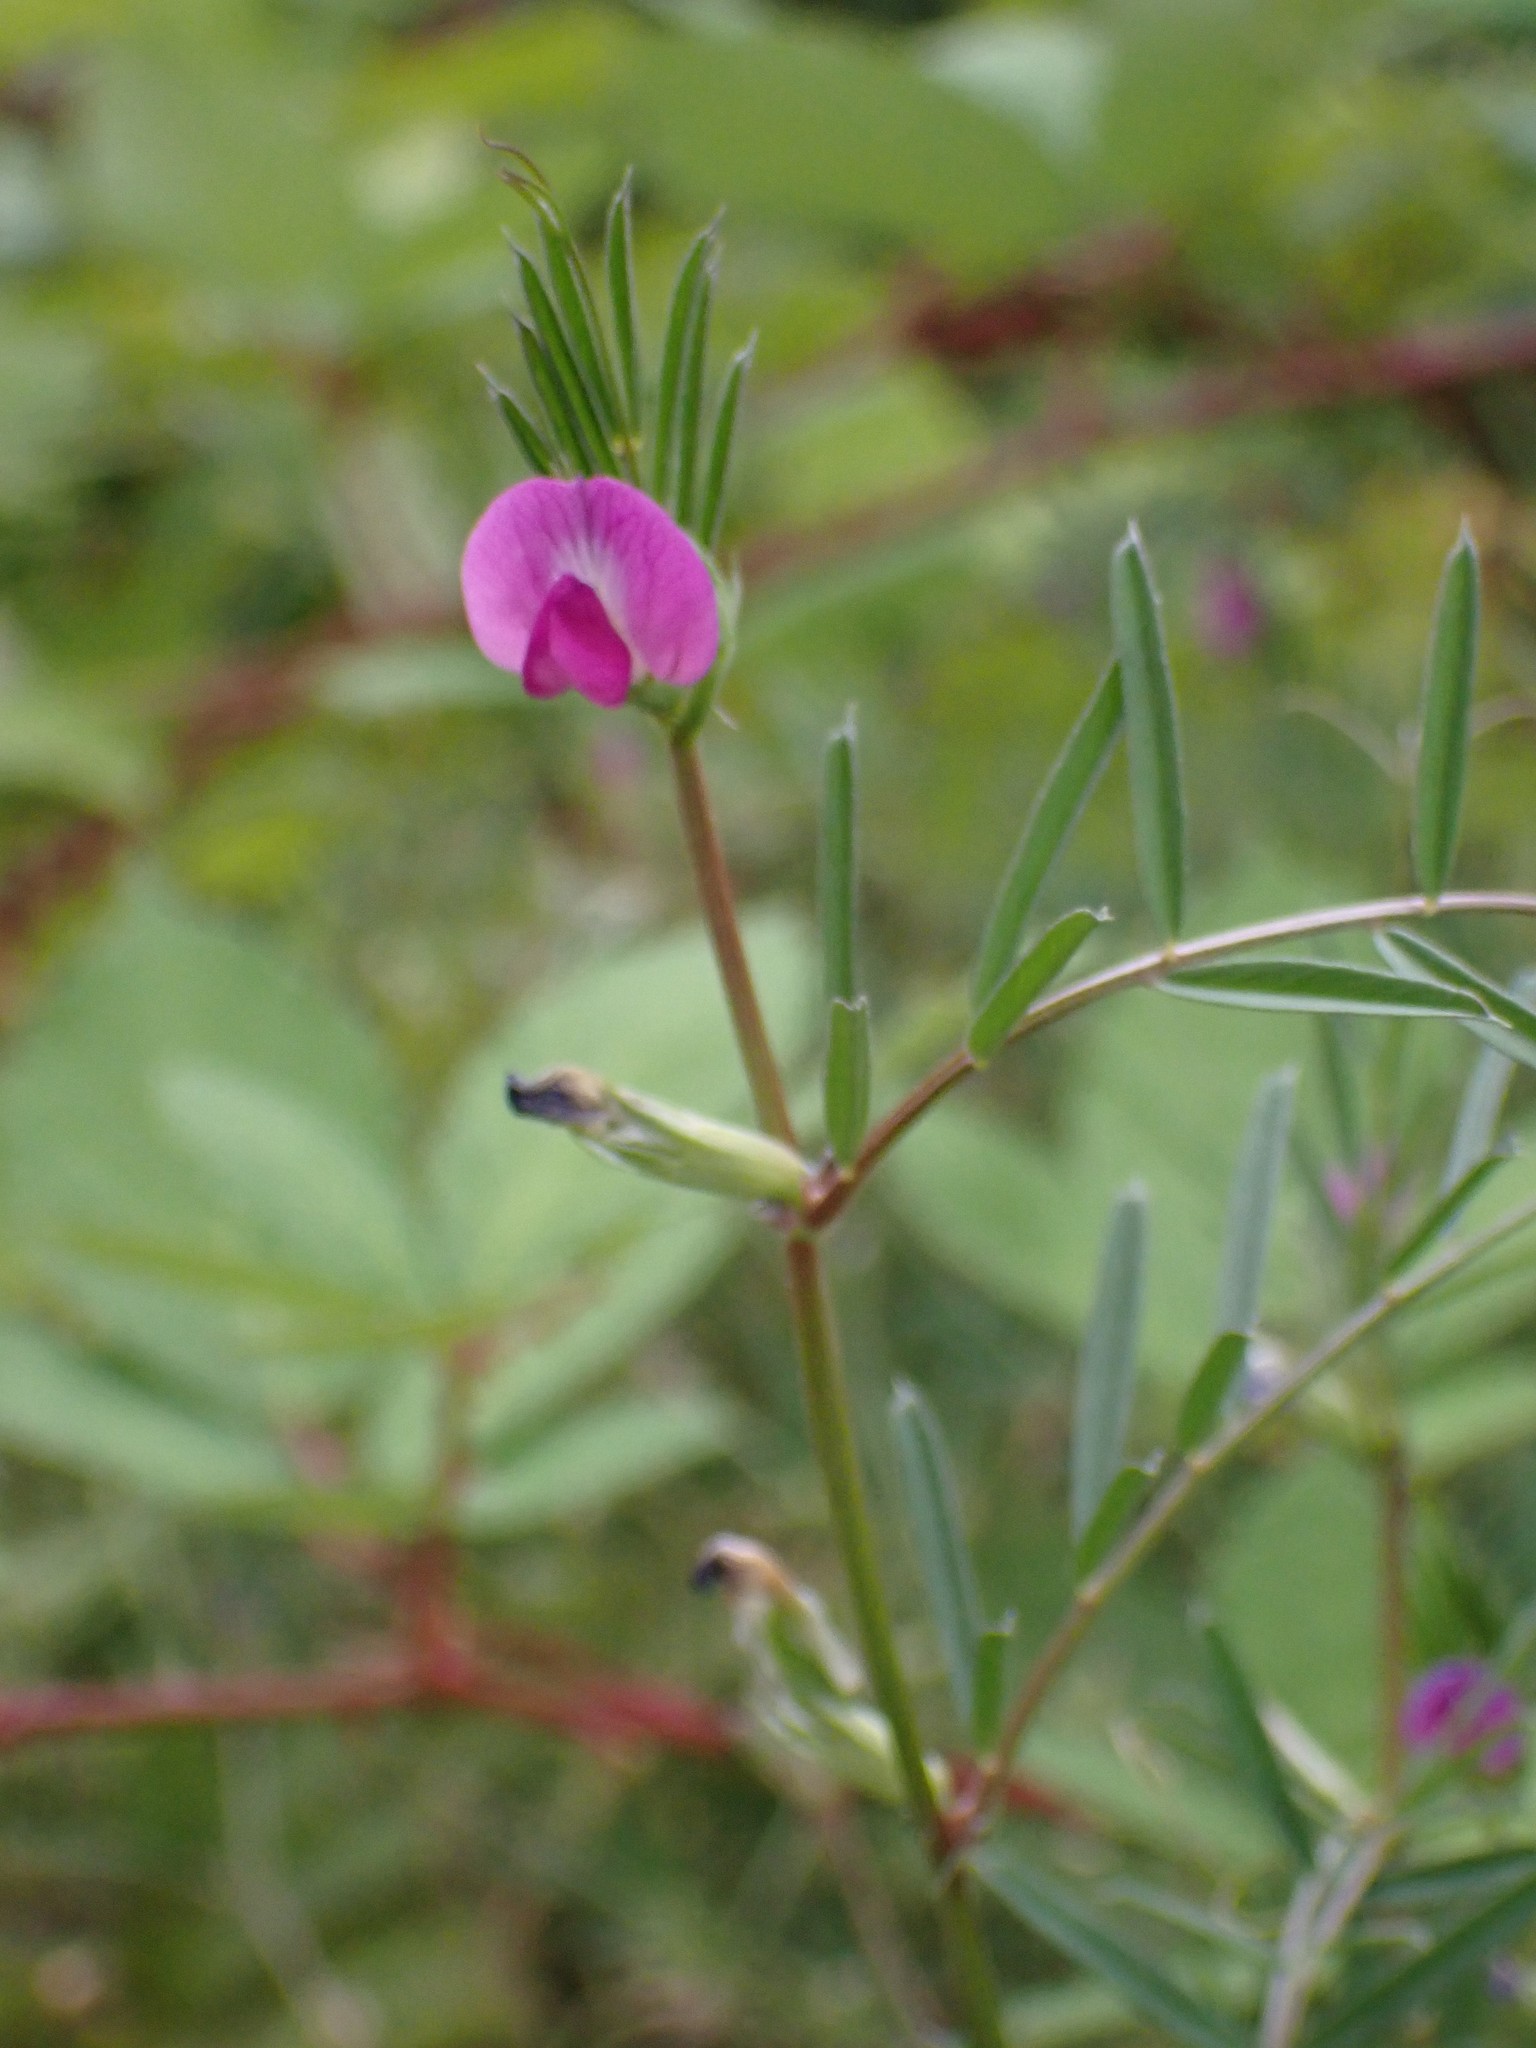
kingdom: Plantae
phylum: Tracheophyta
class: Magnoliopsida
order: Fabales
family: Fabaceae
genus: Vicia
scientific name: Vicia sativa
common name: Garden vetch
